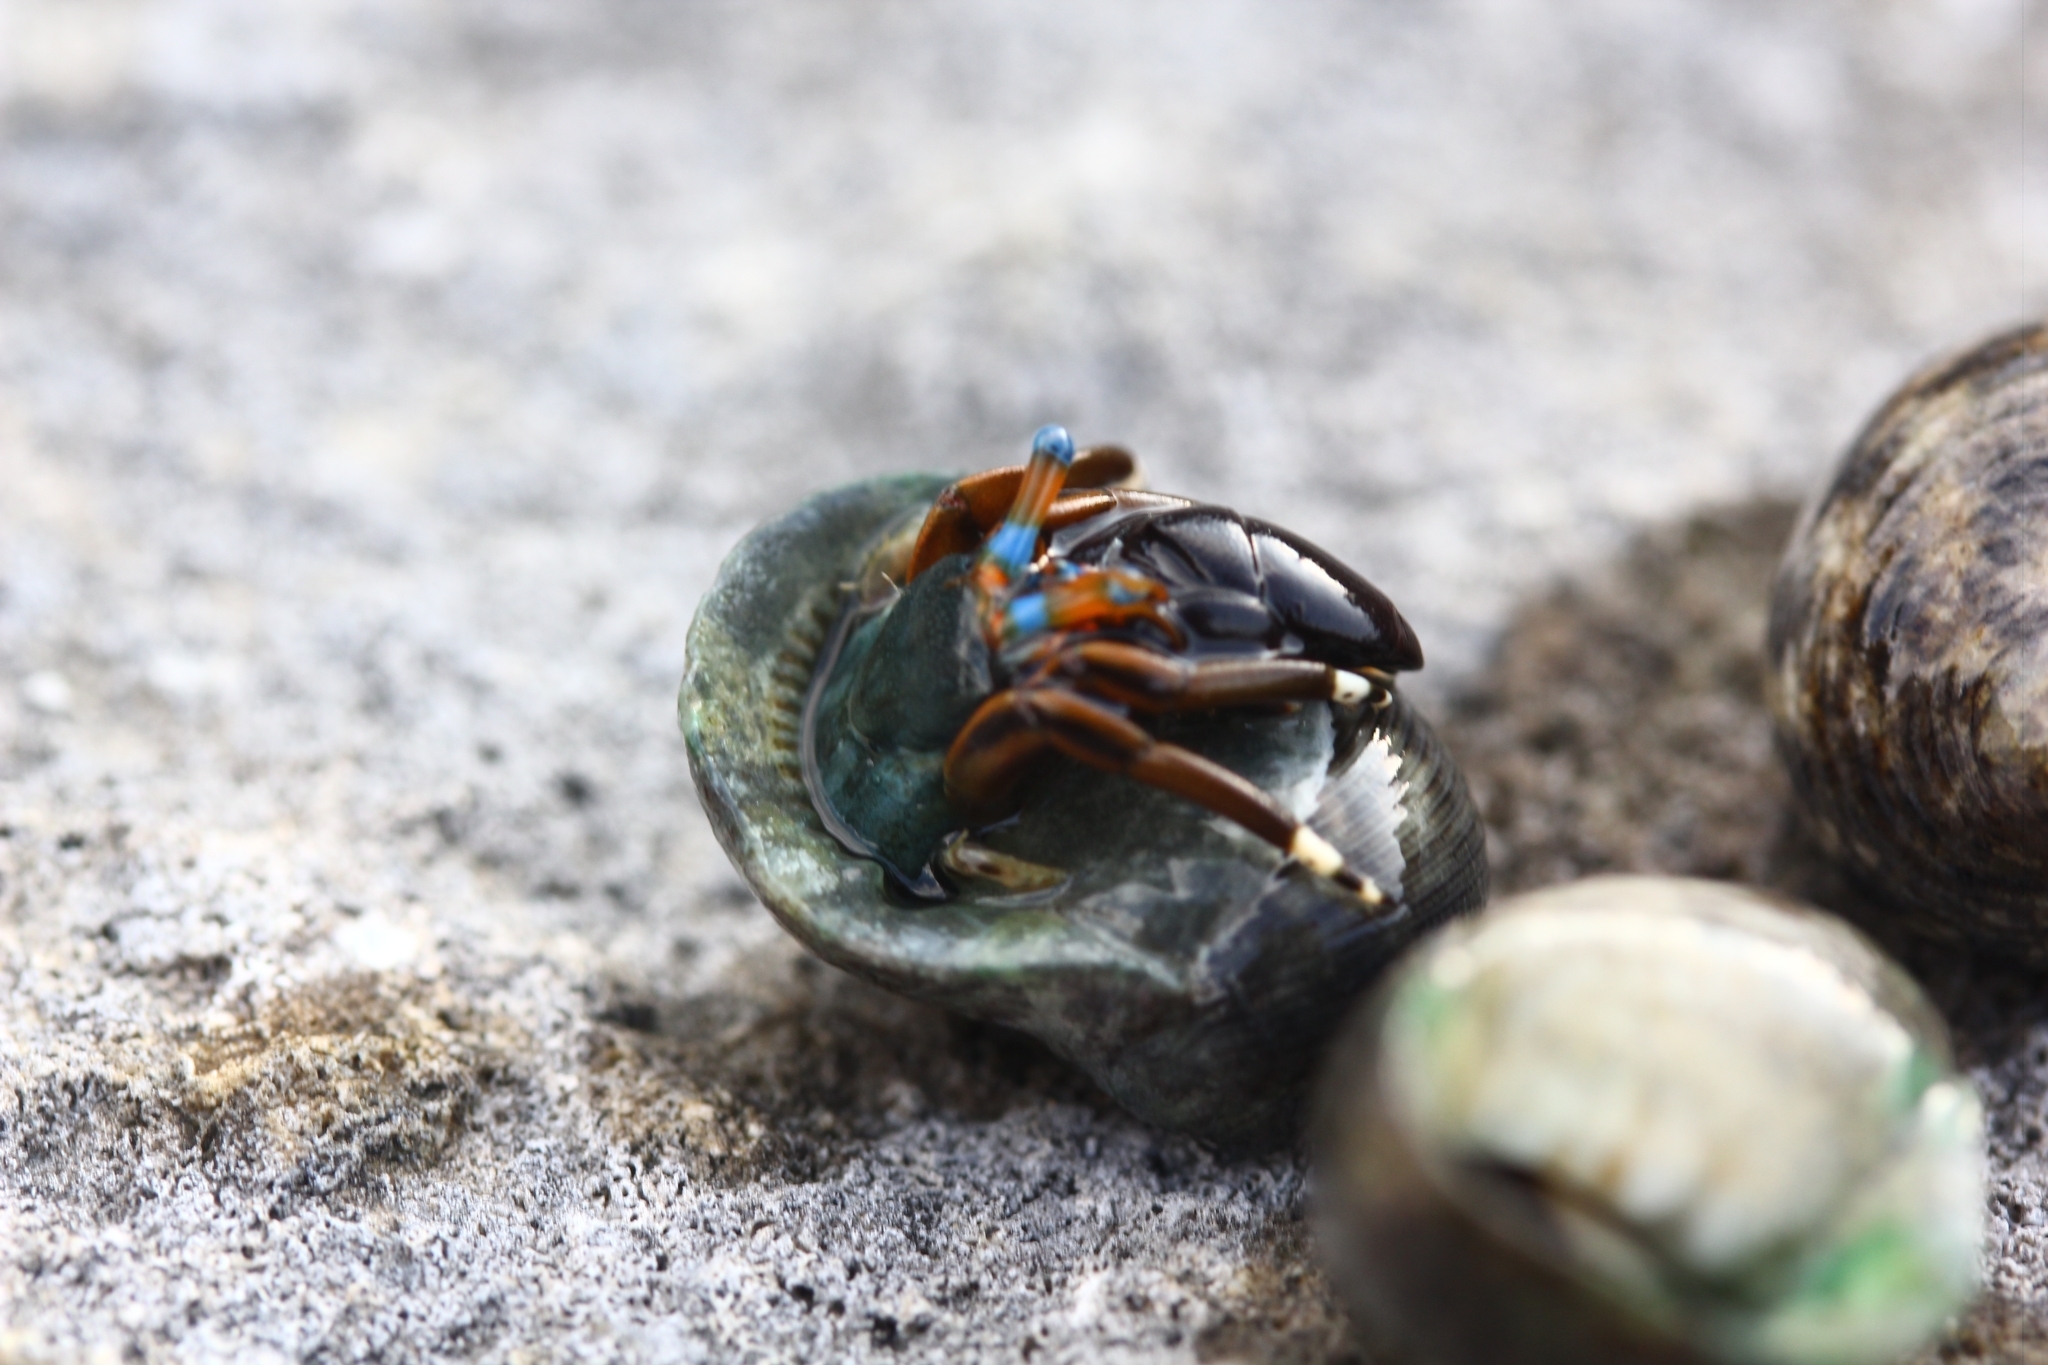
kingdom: Animalia
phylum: Arthropoda
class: Malacostraca
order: Decapoda
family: Diogenidae
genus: Calcinus
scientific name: Calcinus laevimanus
